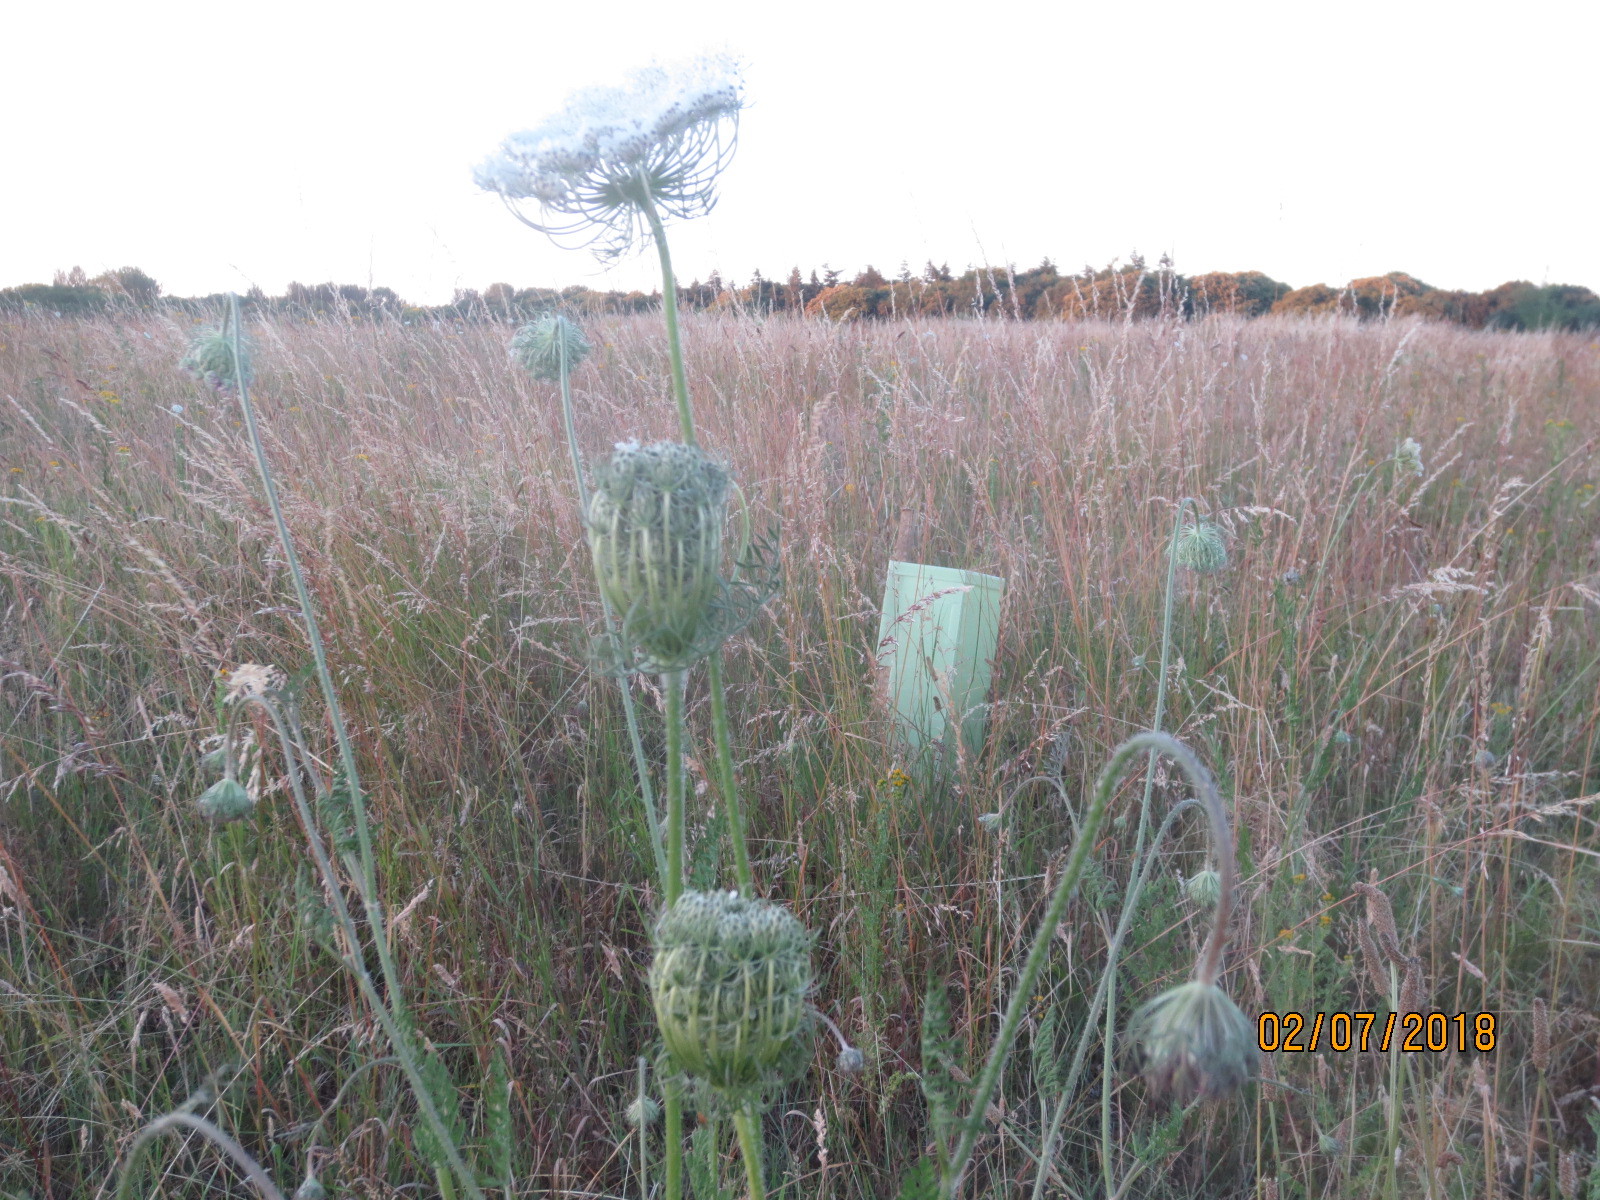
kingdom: Plantae
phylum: Tracheophyta
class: Magnoliopsida
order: Apiales
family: Apiaceae
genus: Daucus
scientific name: Daucus carota
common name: Wild carrot
